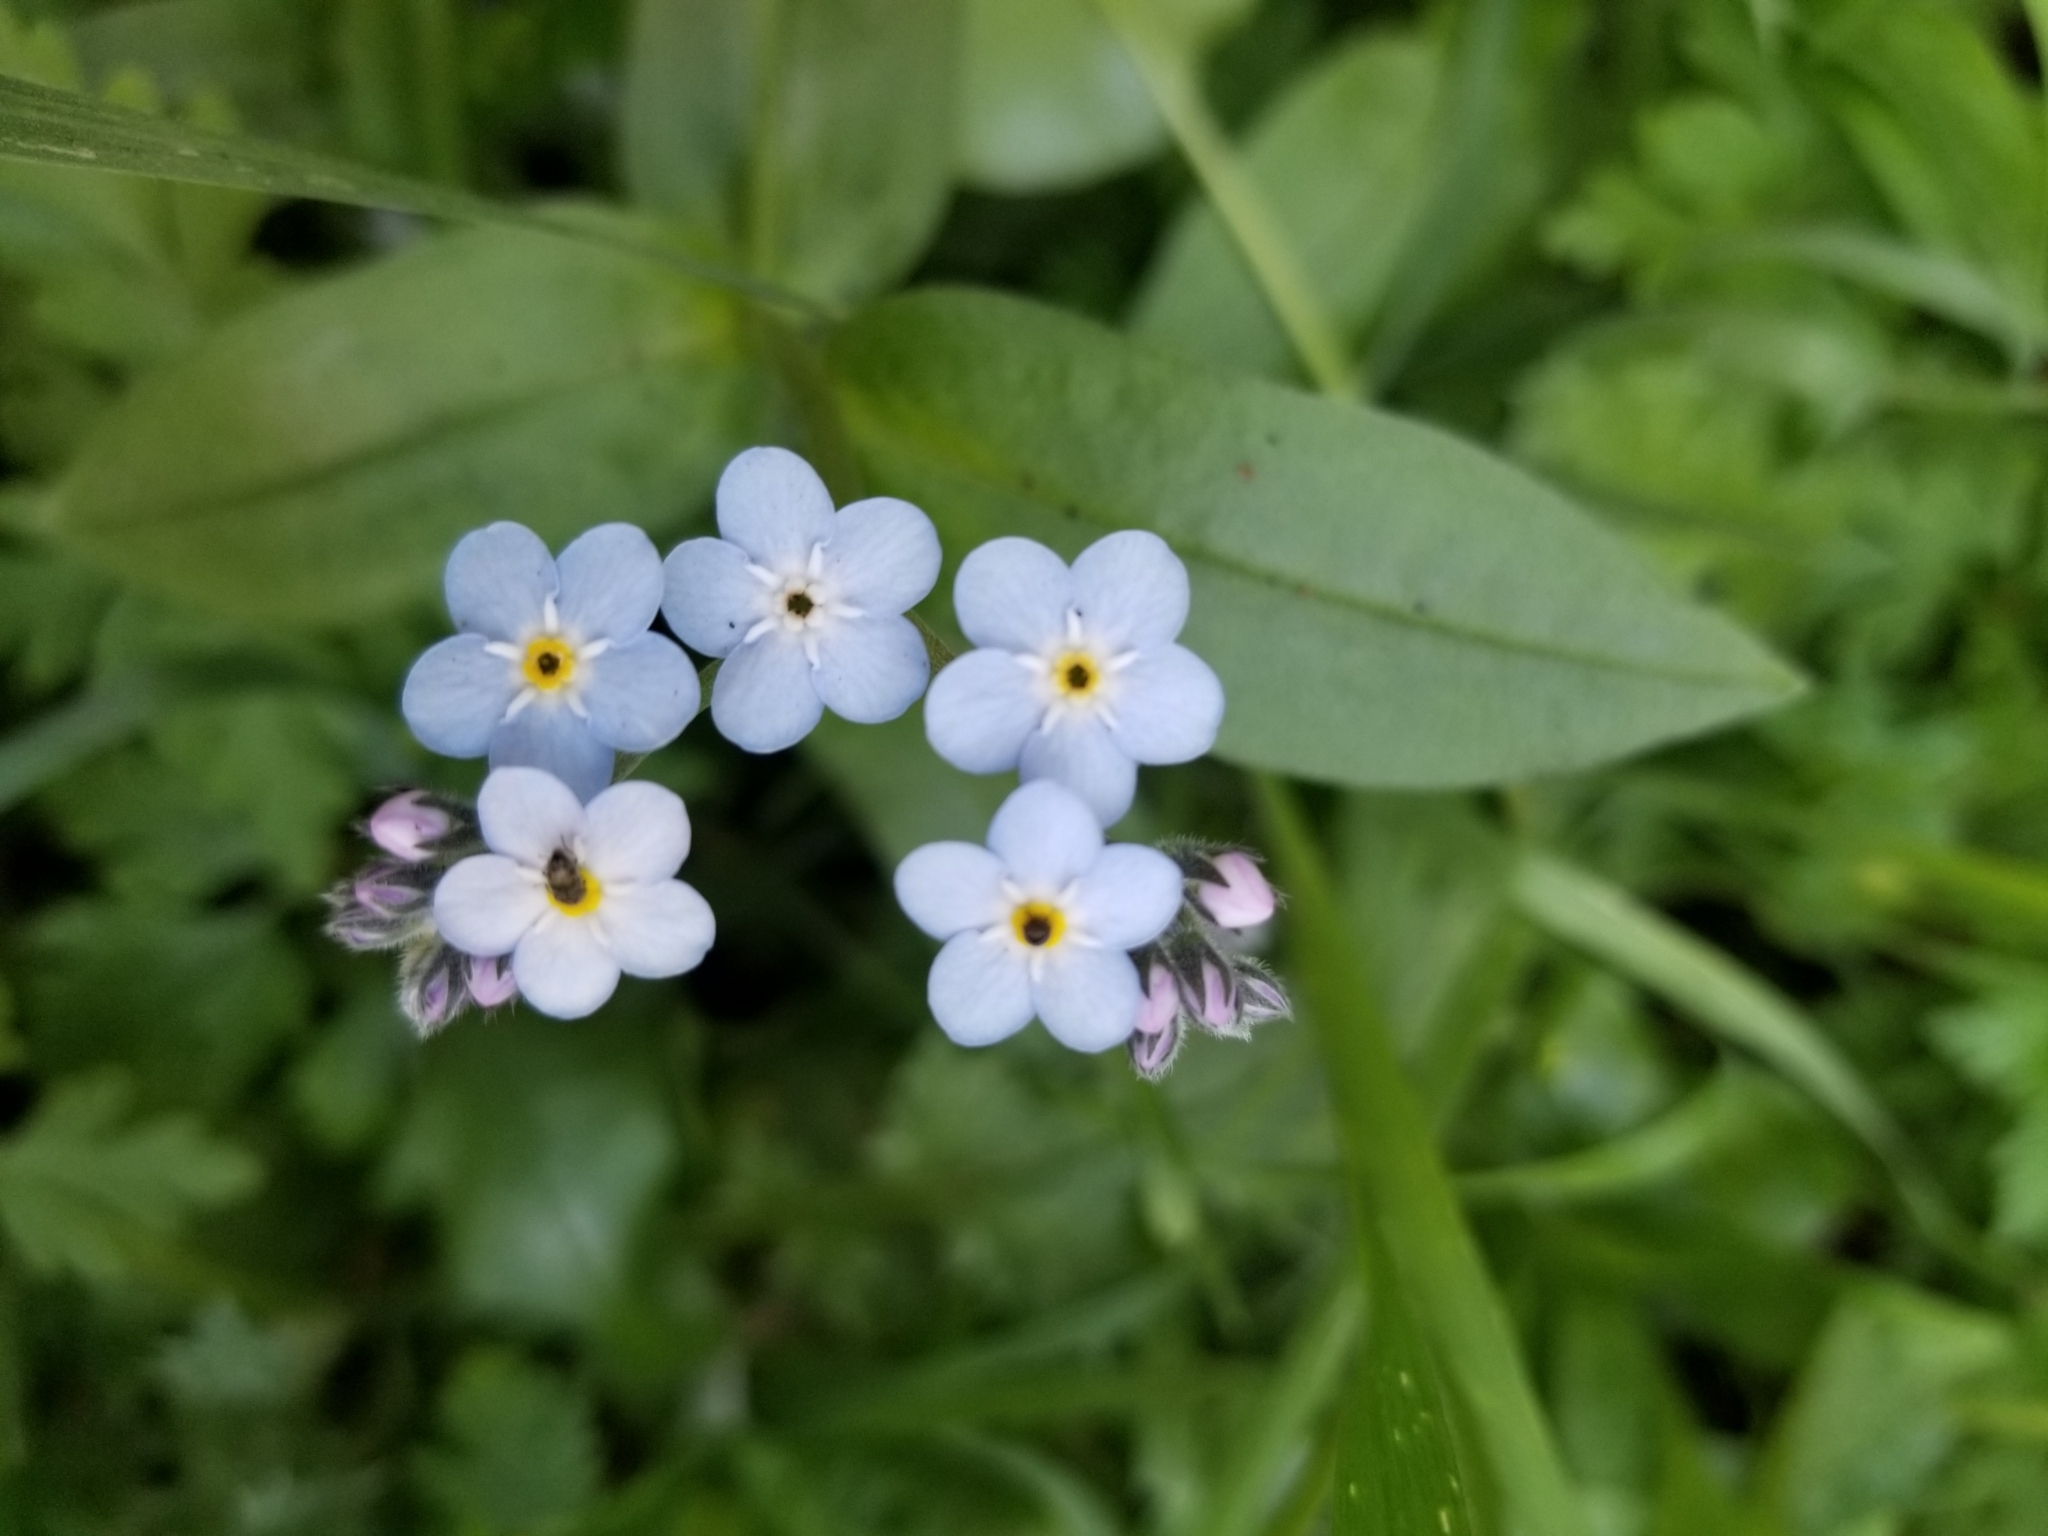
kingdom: Plantae
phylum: Tracheophyta
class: Magnoliopsida
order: Boraginales
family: Boraginaceae
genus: Myosotis
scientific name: Myosotis latifolia
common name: Broadleaf forget-me-not
